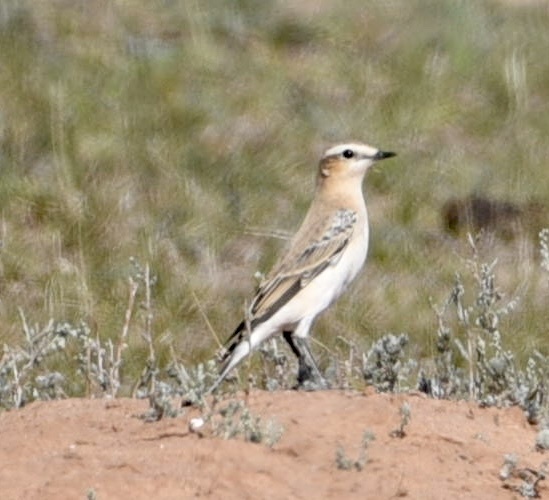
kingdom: Animalia
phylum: Chordata
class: Aves
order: Passeriformes
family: Muscicapidae
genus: Oenanthe
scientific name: Oenanthe oenanthe
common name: Northern wheatear
